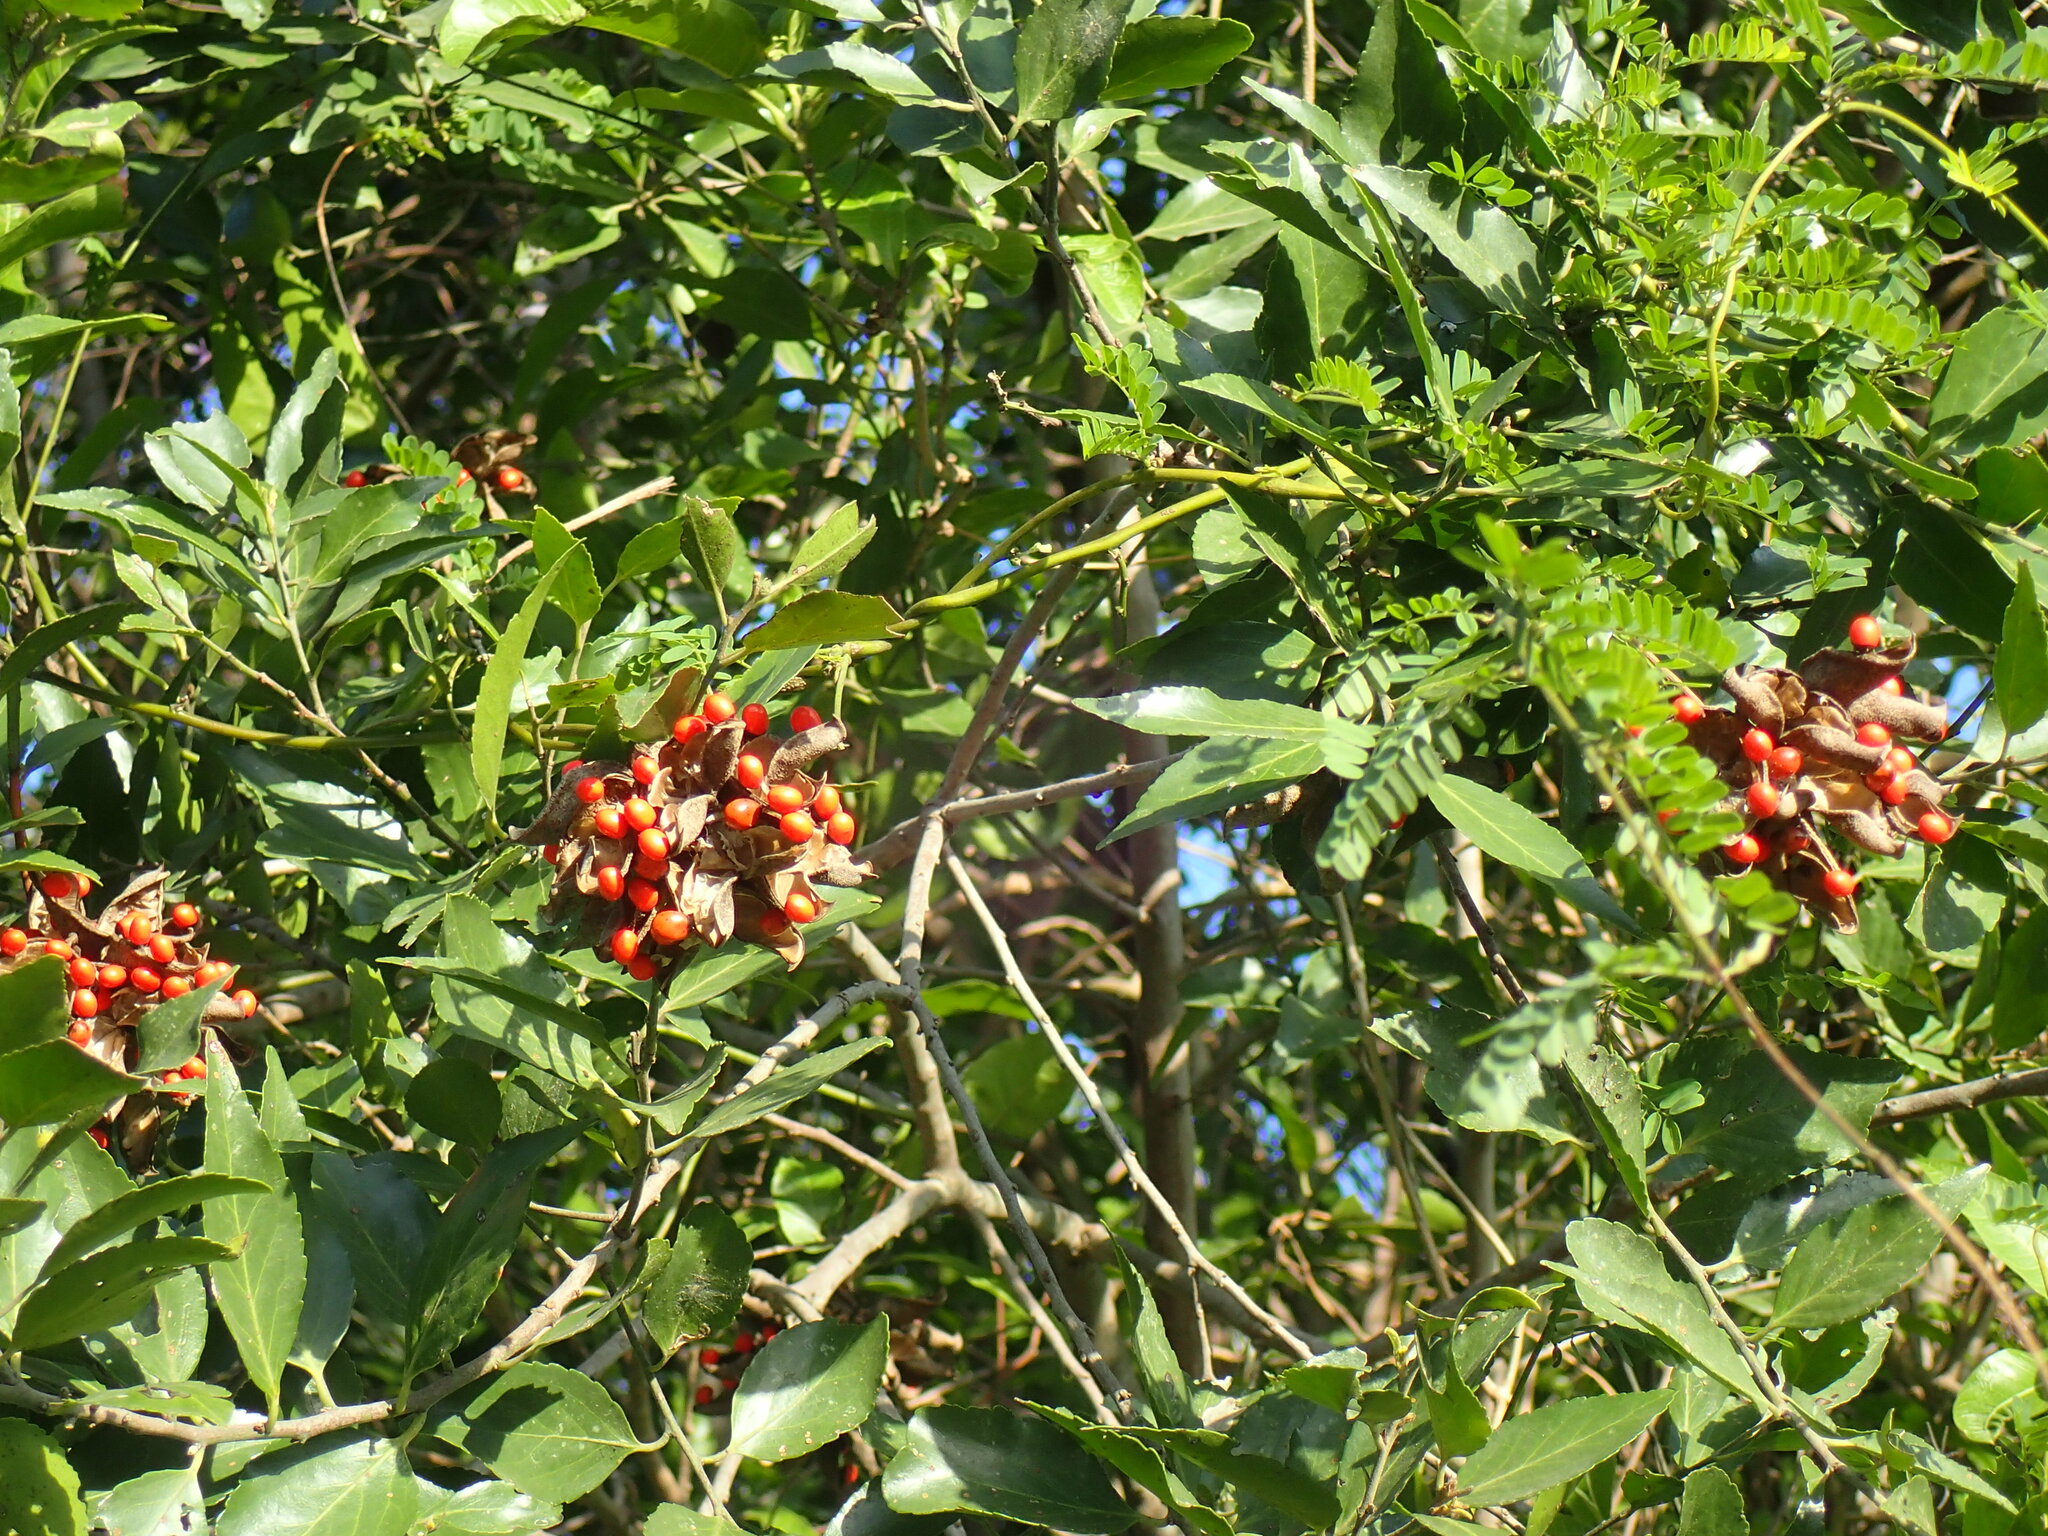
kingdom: Plantae
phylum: Tracheophyta
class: Magnoliopsida
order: Fabales
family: Fabaceae
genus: Abrus
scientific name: Abrus precatorius
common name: Rosarypea
